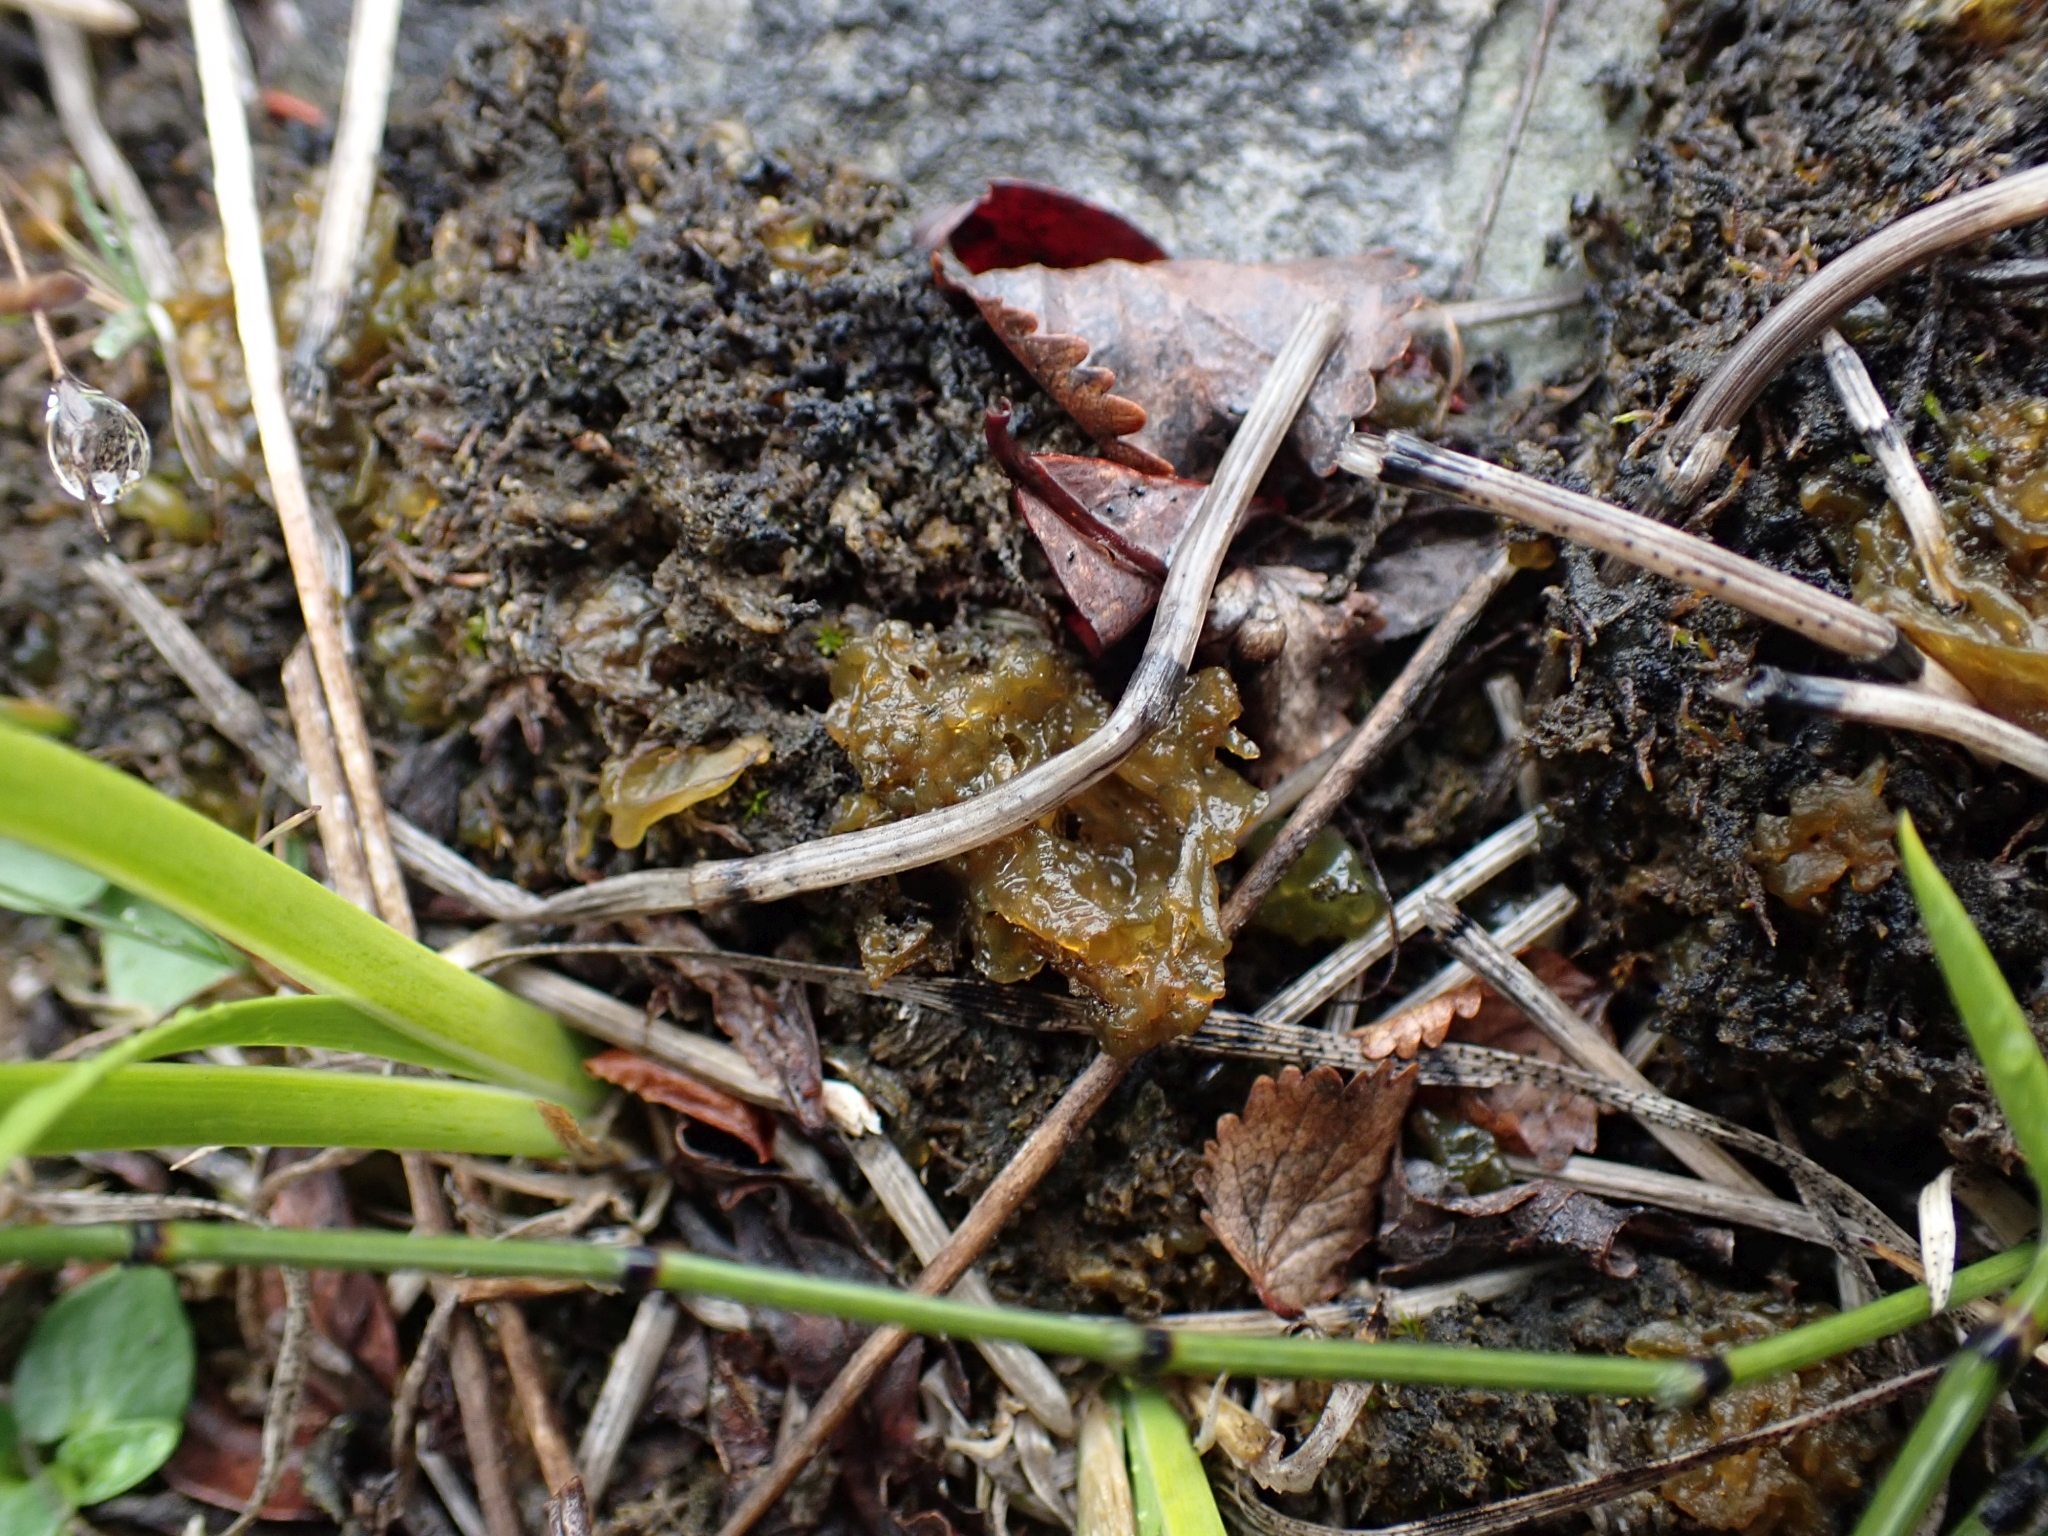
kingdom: Bacteria
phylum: Cyanobacteria
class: Cyanobacteriia
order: Cyanobacteriales
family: Nostocaceae
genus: Nostoc
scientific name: Nostoc commune
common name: Star jelly
